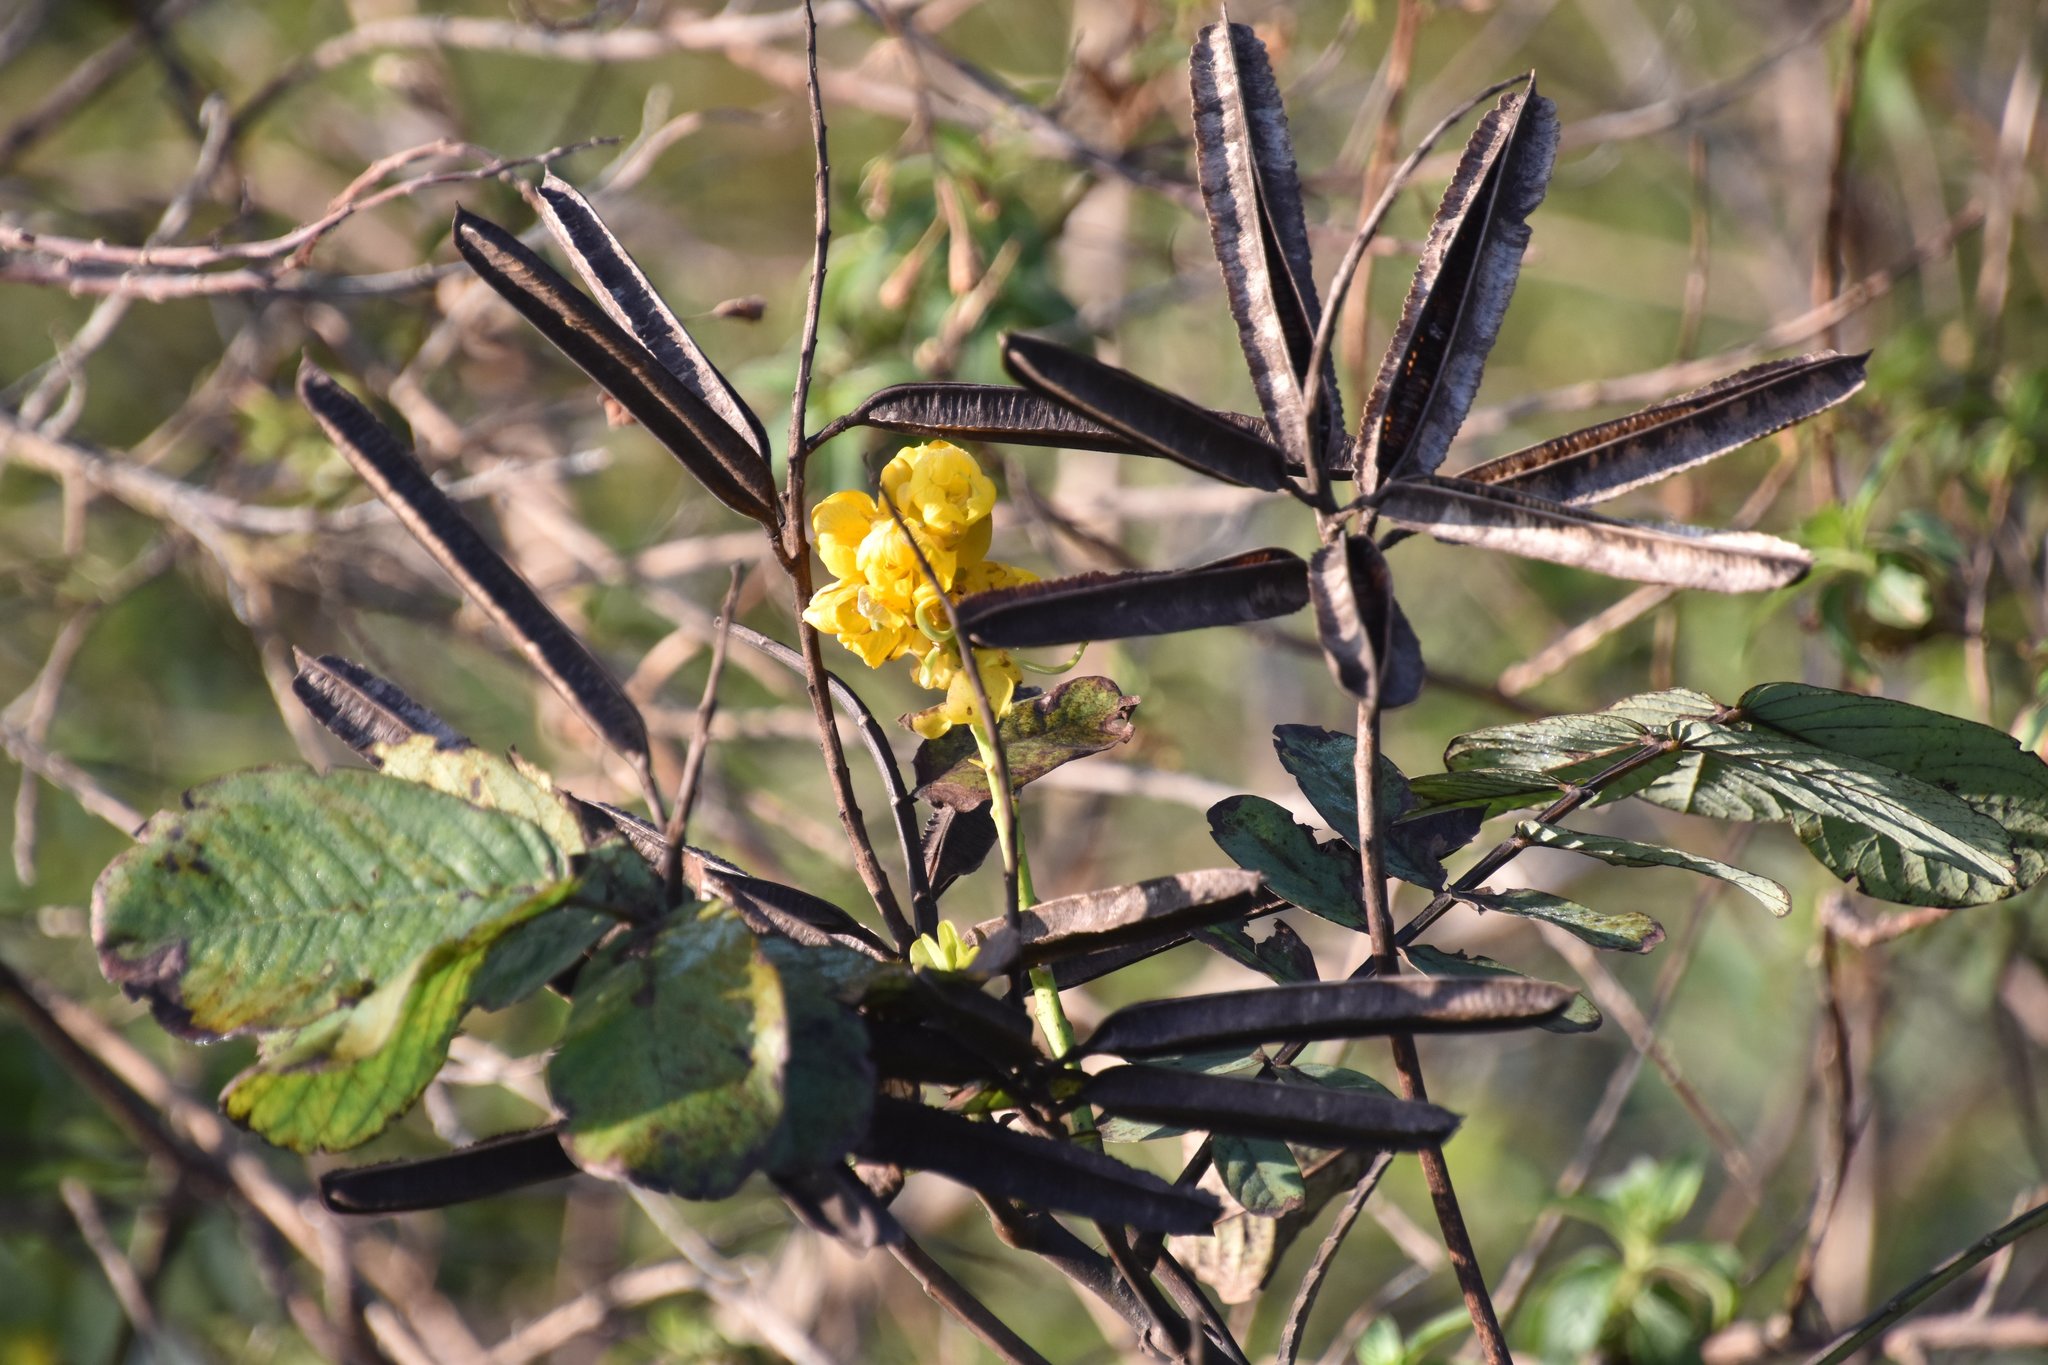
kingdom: Plantae
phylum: Tracheophyta
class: Magnoliopsida
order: Fabales
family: Fabaceae
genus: Senna
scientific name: Senna alata
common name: Emperor's candlesticks
